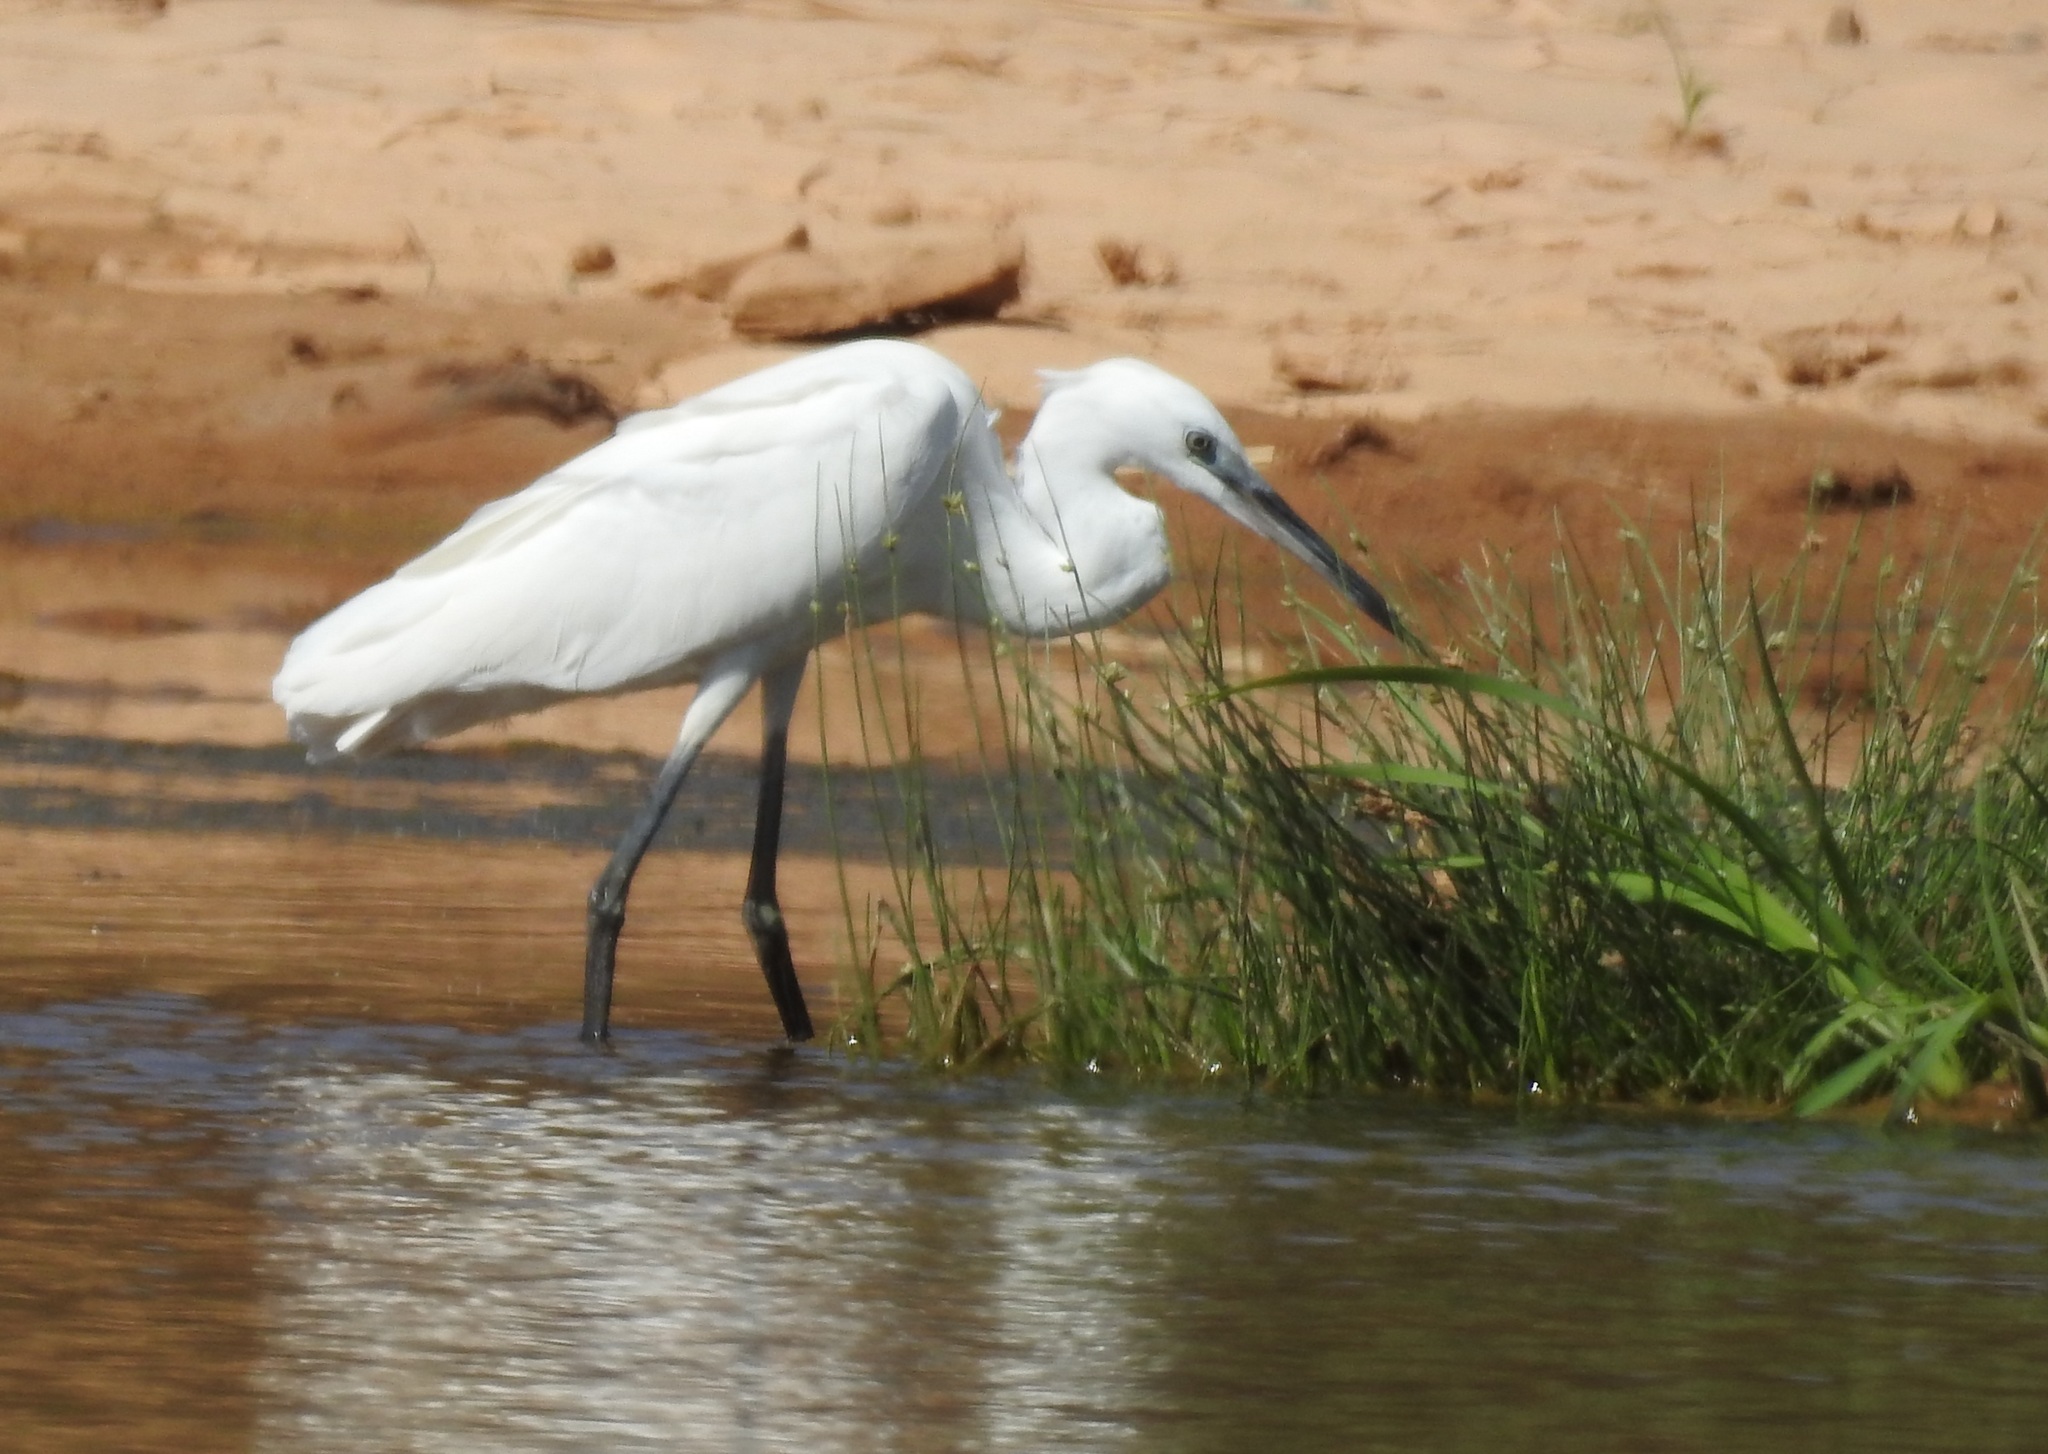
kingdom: Animalia
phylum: Chordata
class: Aves
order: Pelecaniformes
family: Ardeidae
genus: Egretta
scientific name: Egretta garzetta
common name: Little egret
